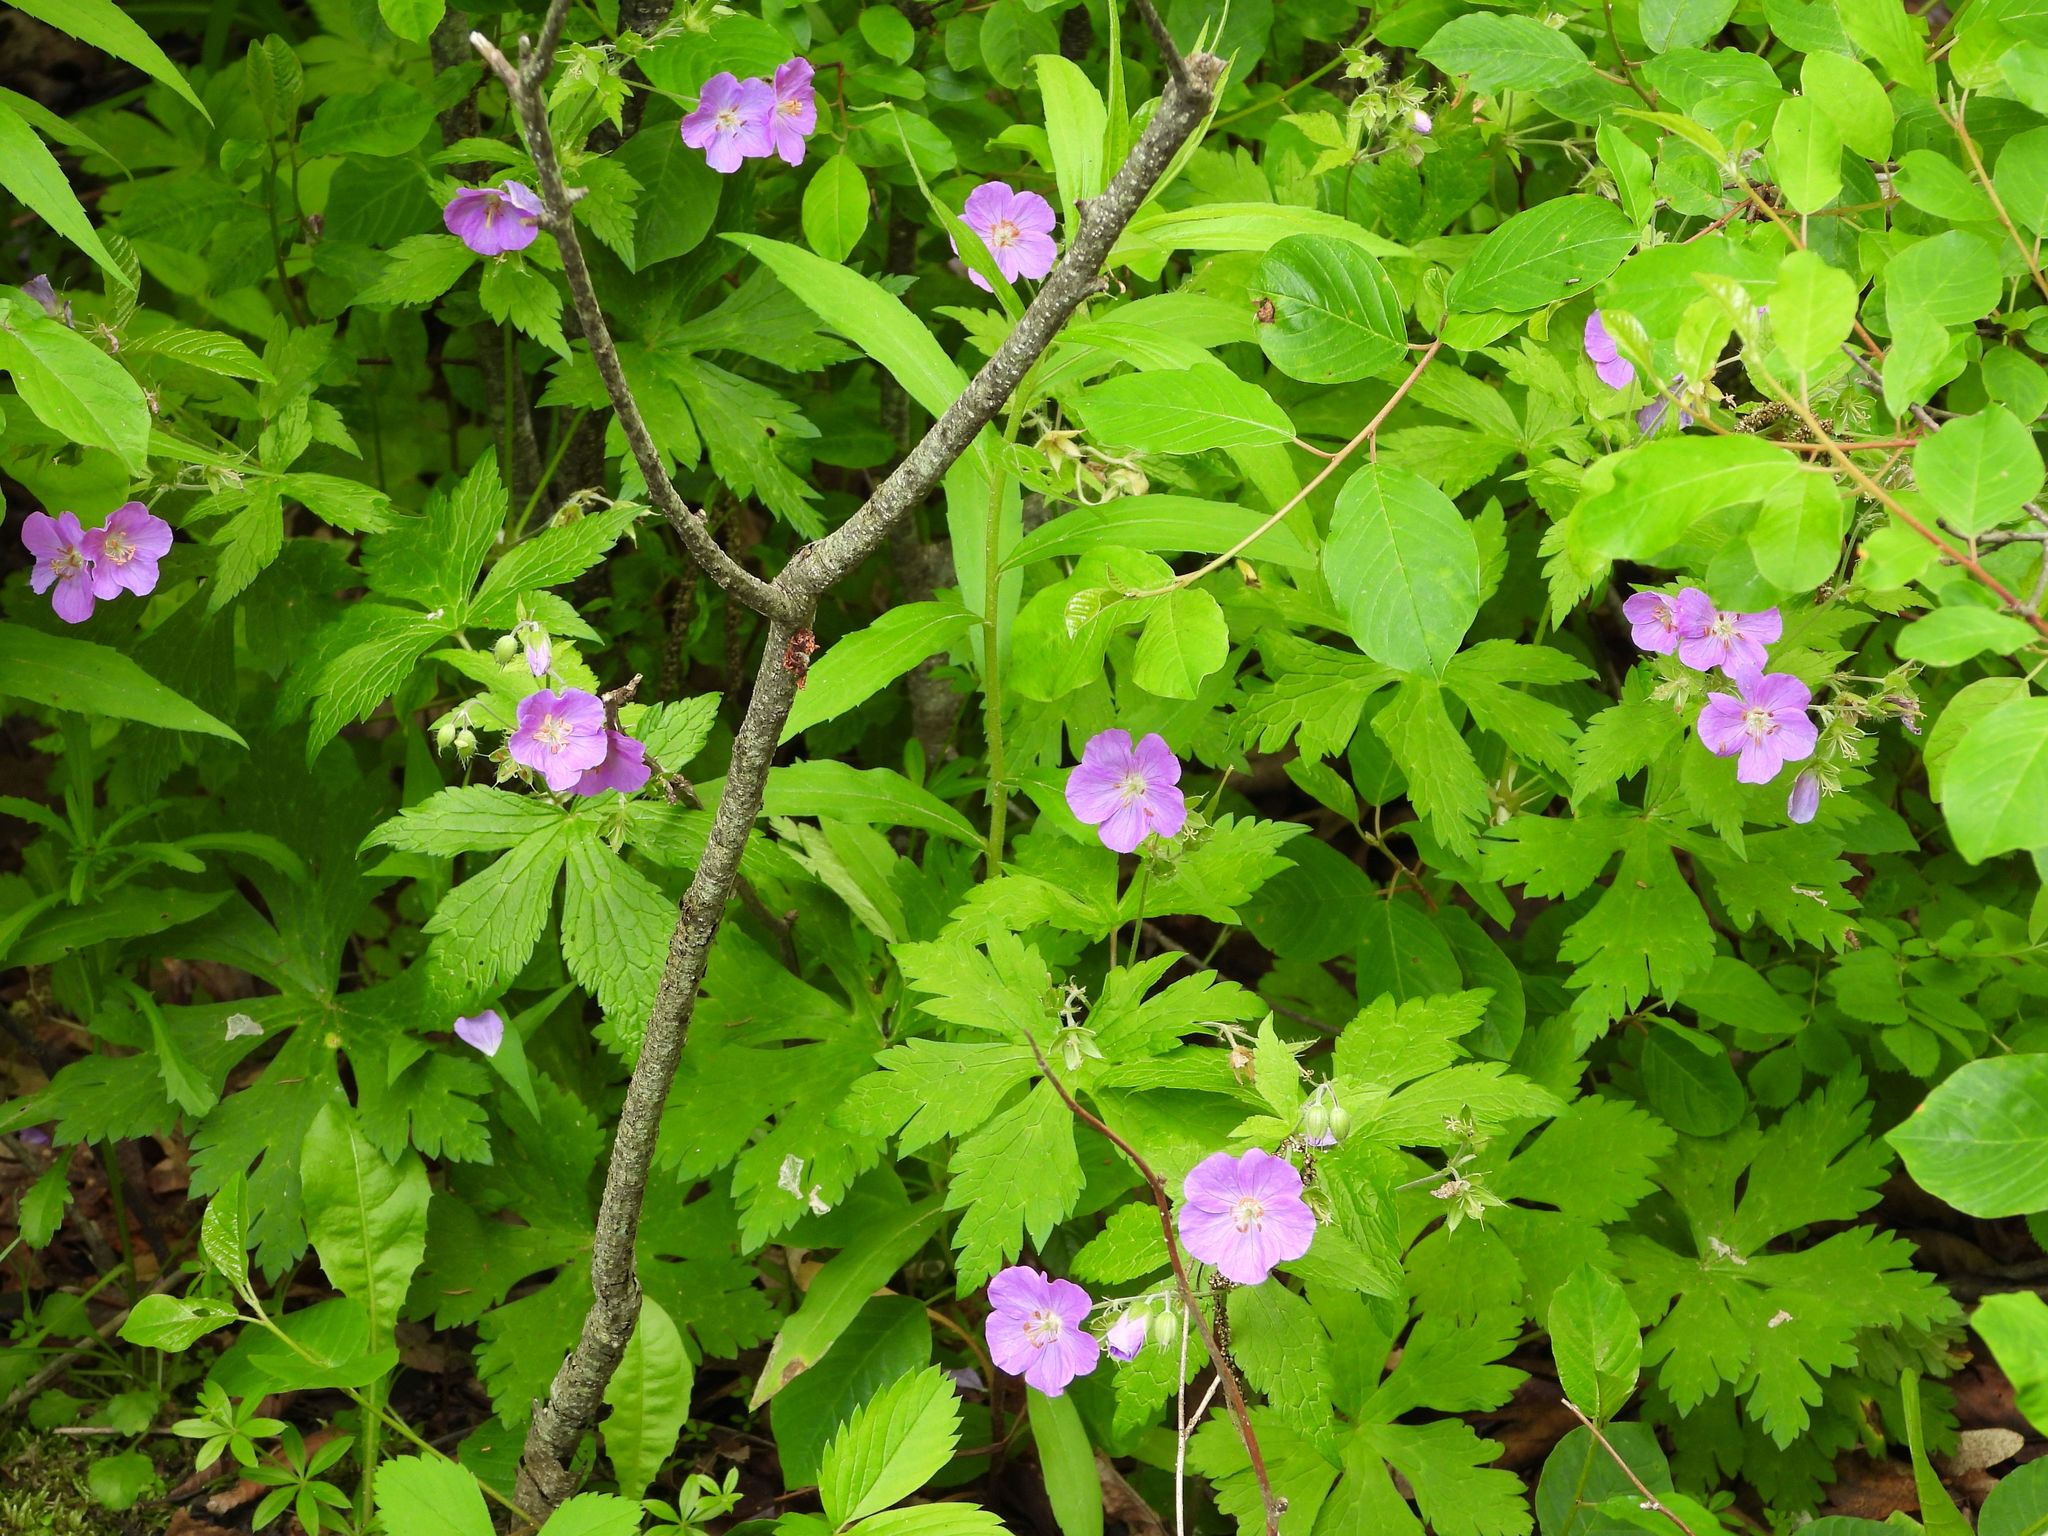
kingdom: Plantae
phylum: Tracheophyta
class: Magnoliopsida
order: Geraniales
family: Geraniaceae
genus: Geranium
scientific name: Geranium maculatum
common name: Spotted geranium
